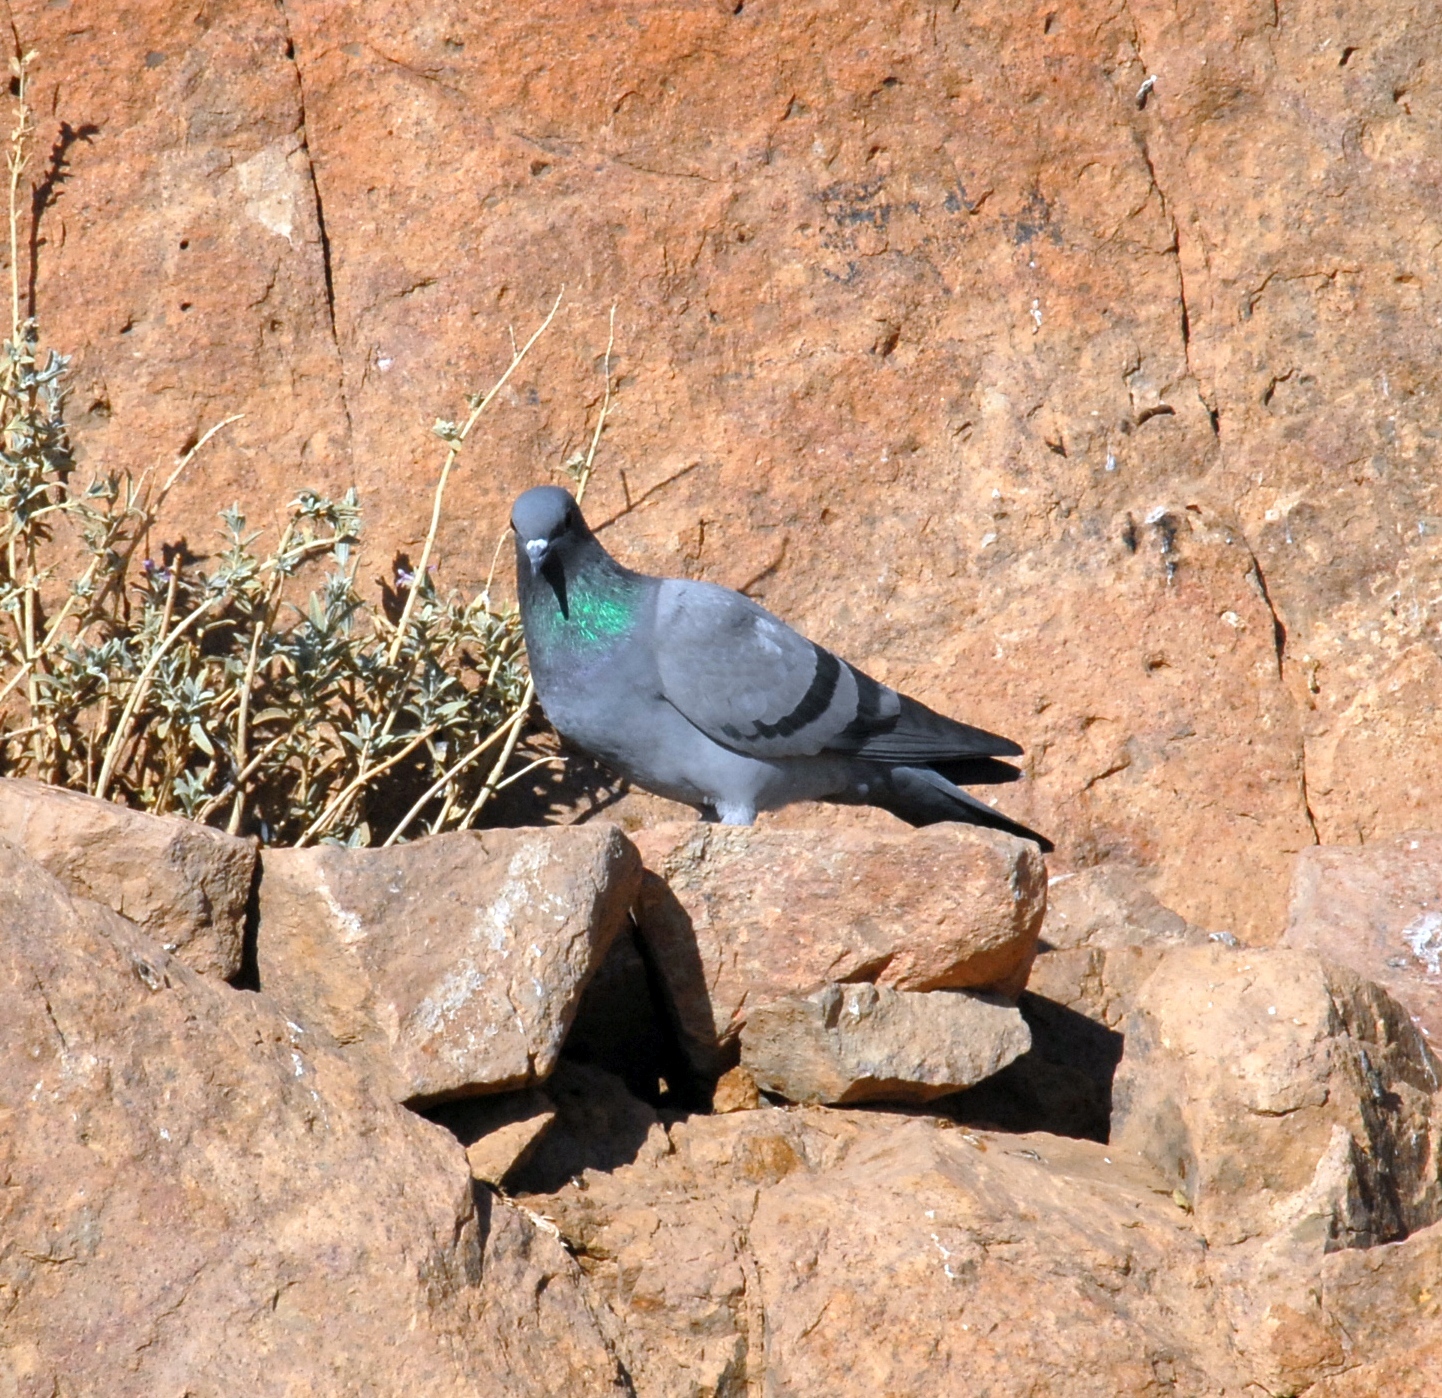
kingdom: Animalia
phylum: Chordata
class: Aves
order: Columbiformes
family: Columbidae
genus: Columba
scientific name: Columba livia
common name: Rock pigeon
